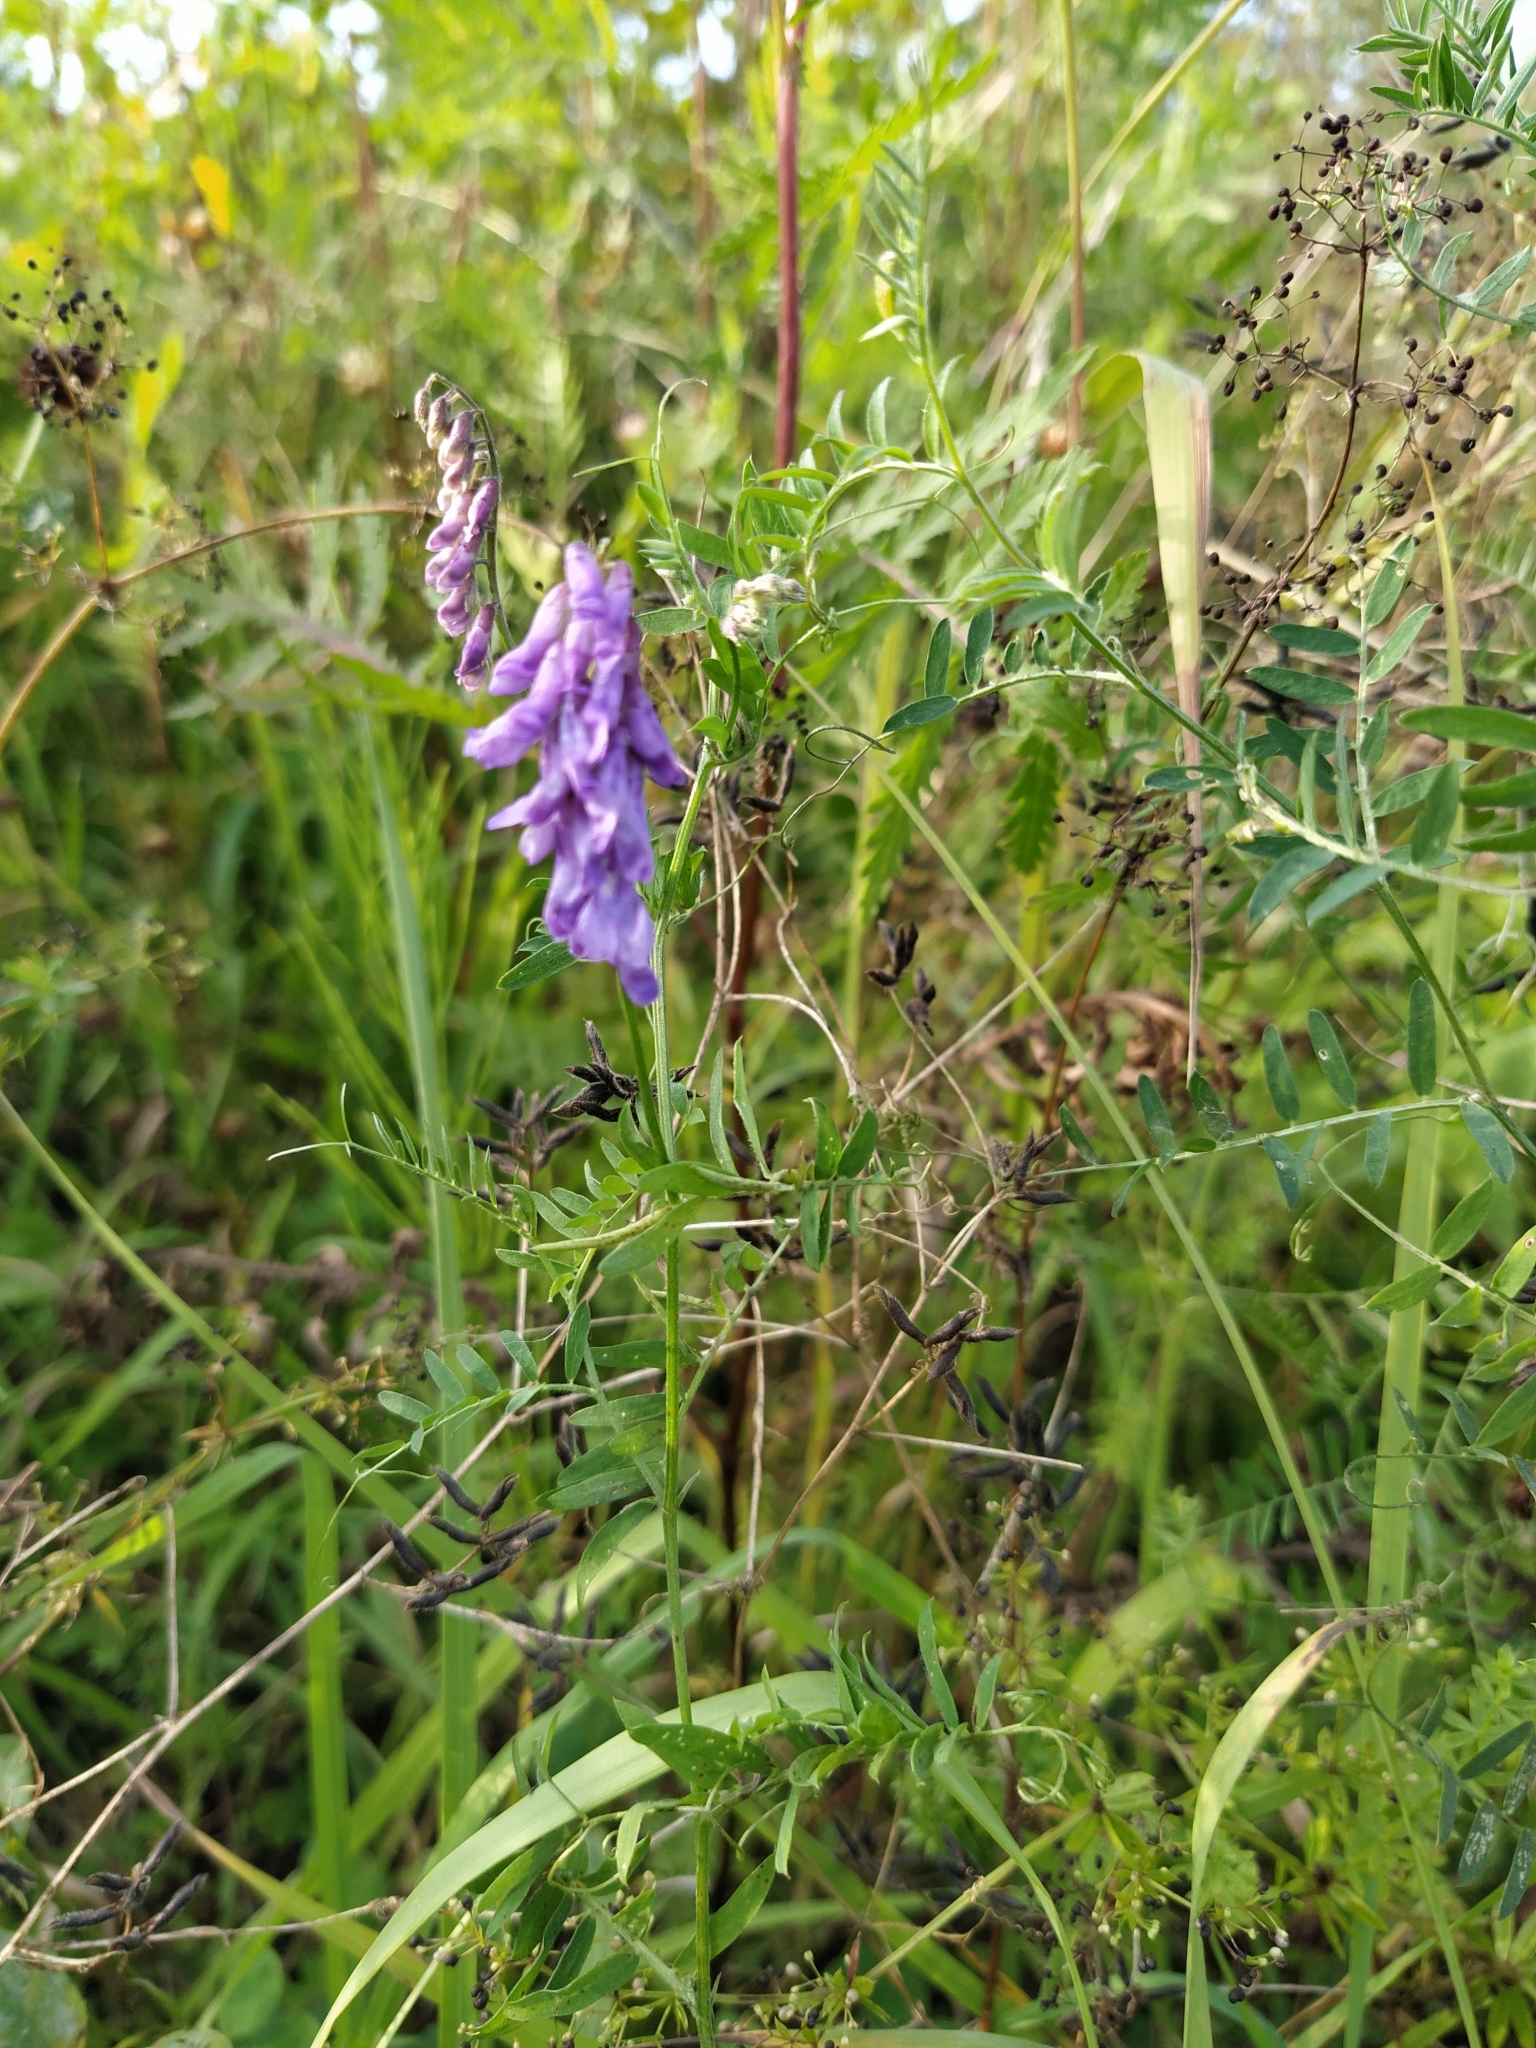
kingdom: Plantae
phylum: Tracheophyta
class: Magnoliopsida
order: Fabales
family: Fabaceae
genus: Vicia
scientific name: Vicia cracca
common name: Bird vetch
